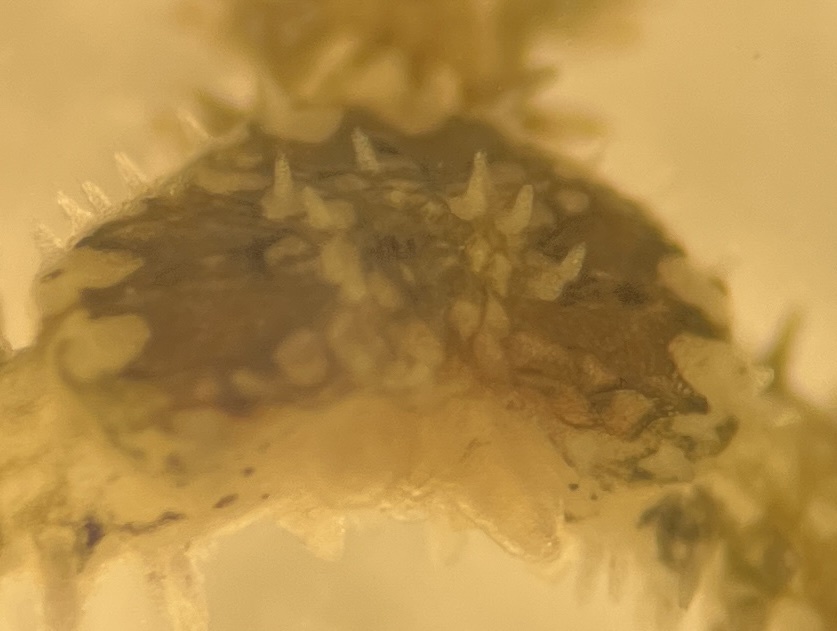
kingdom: Animalia
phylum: Echinodermata
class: Ophiuroidea
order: Amphilepidida
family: Ophiactidae
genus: Ophiactis
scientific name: Ophiactis savignyi
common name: Savigny's brittle star
